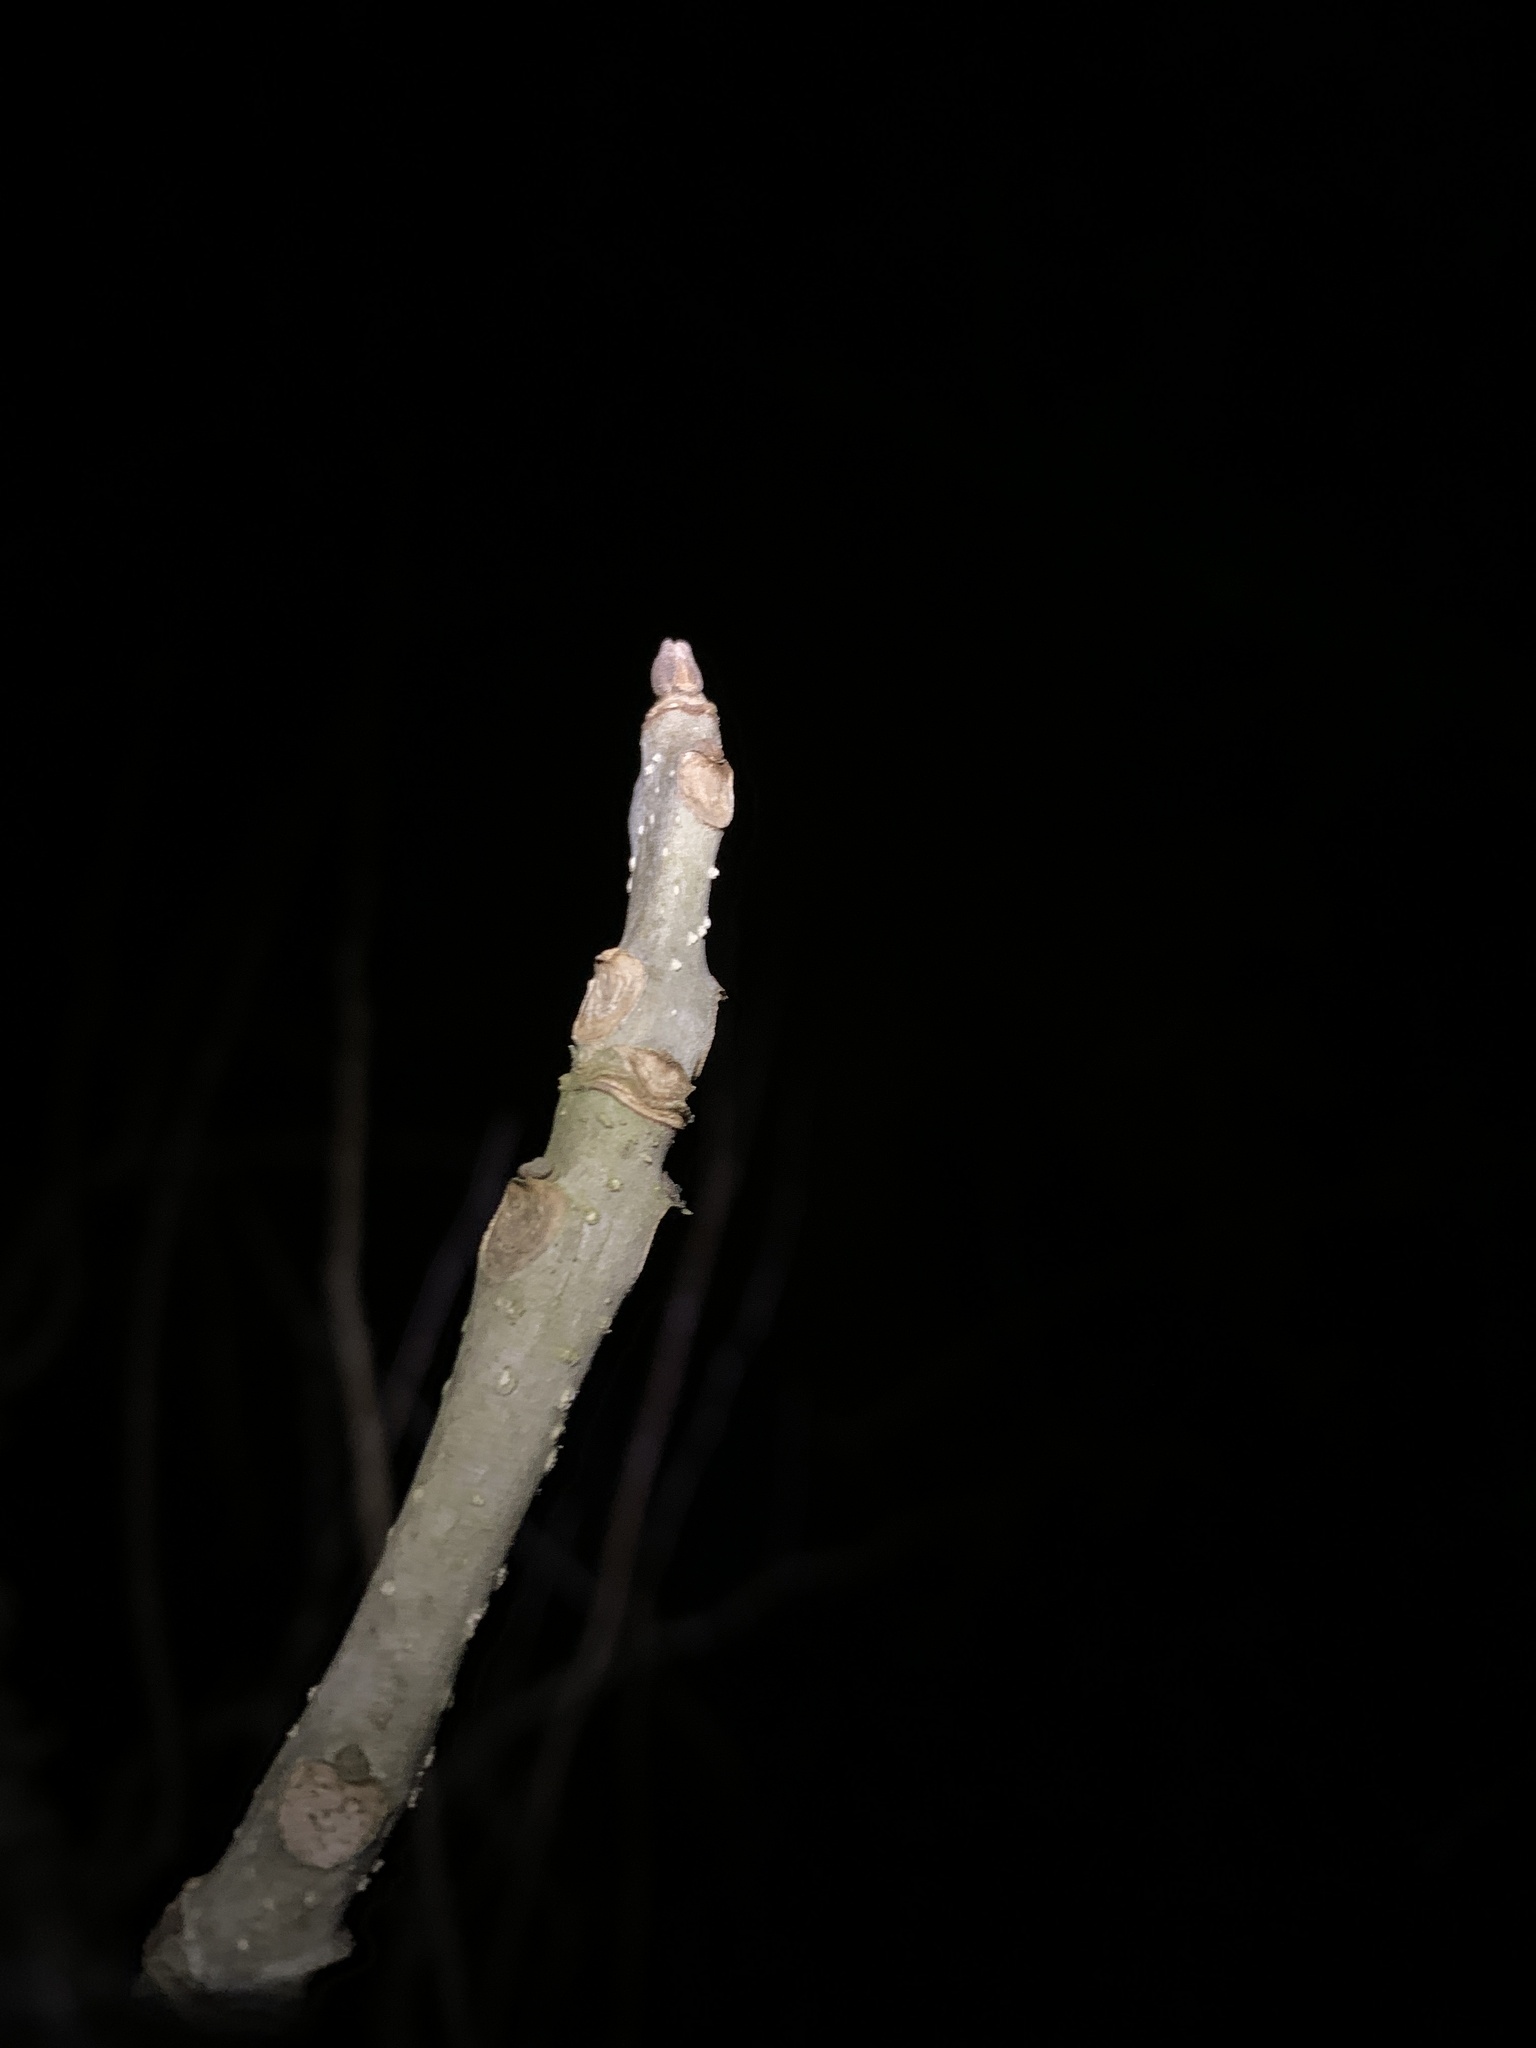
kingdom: Plantae
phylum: Tracheophyta
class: Magnoliopsida
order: Lamiales
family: Oleaceae
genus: Fraxinus
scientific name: Fraxinus nigra
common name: Black ash
